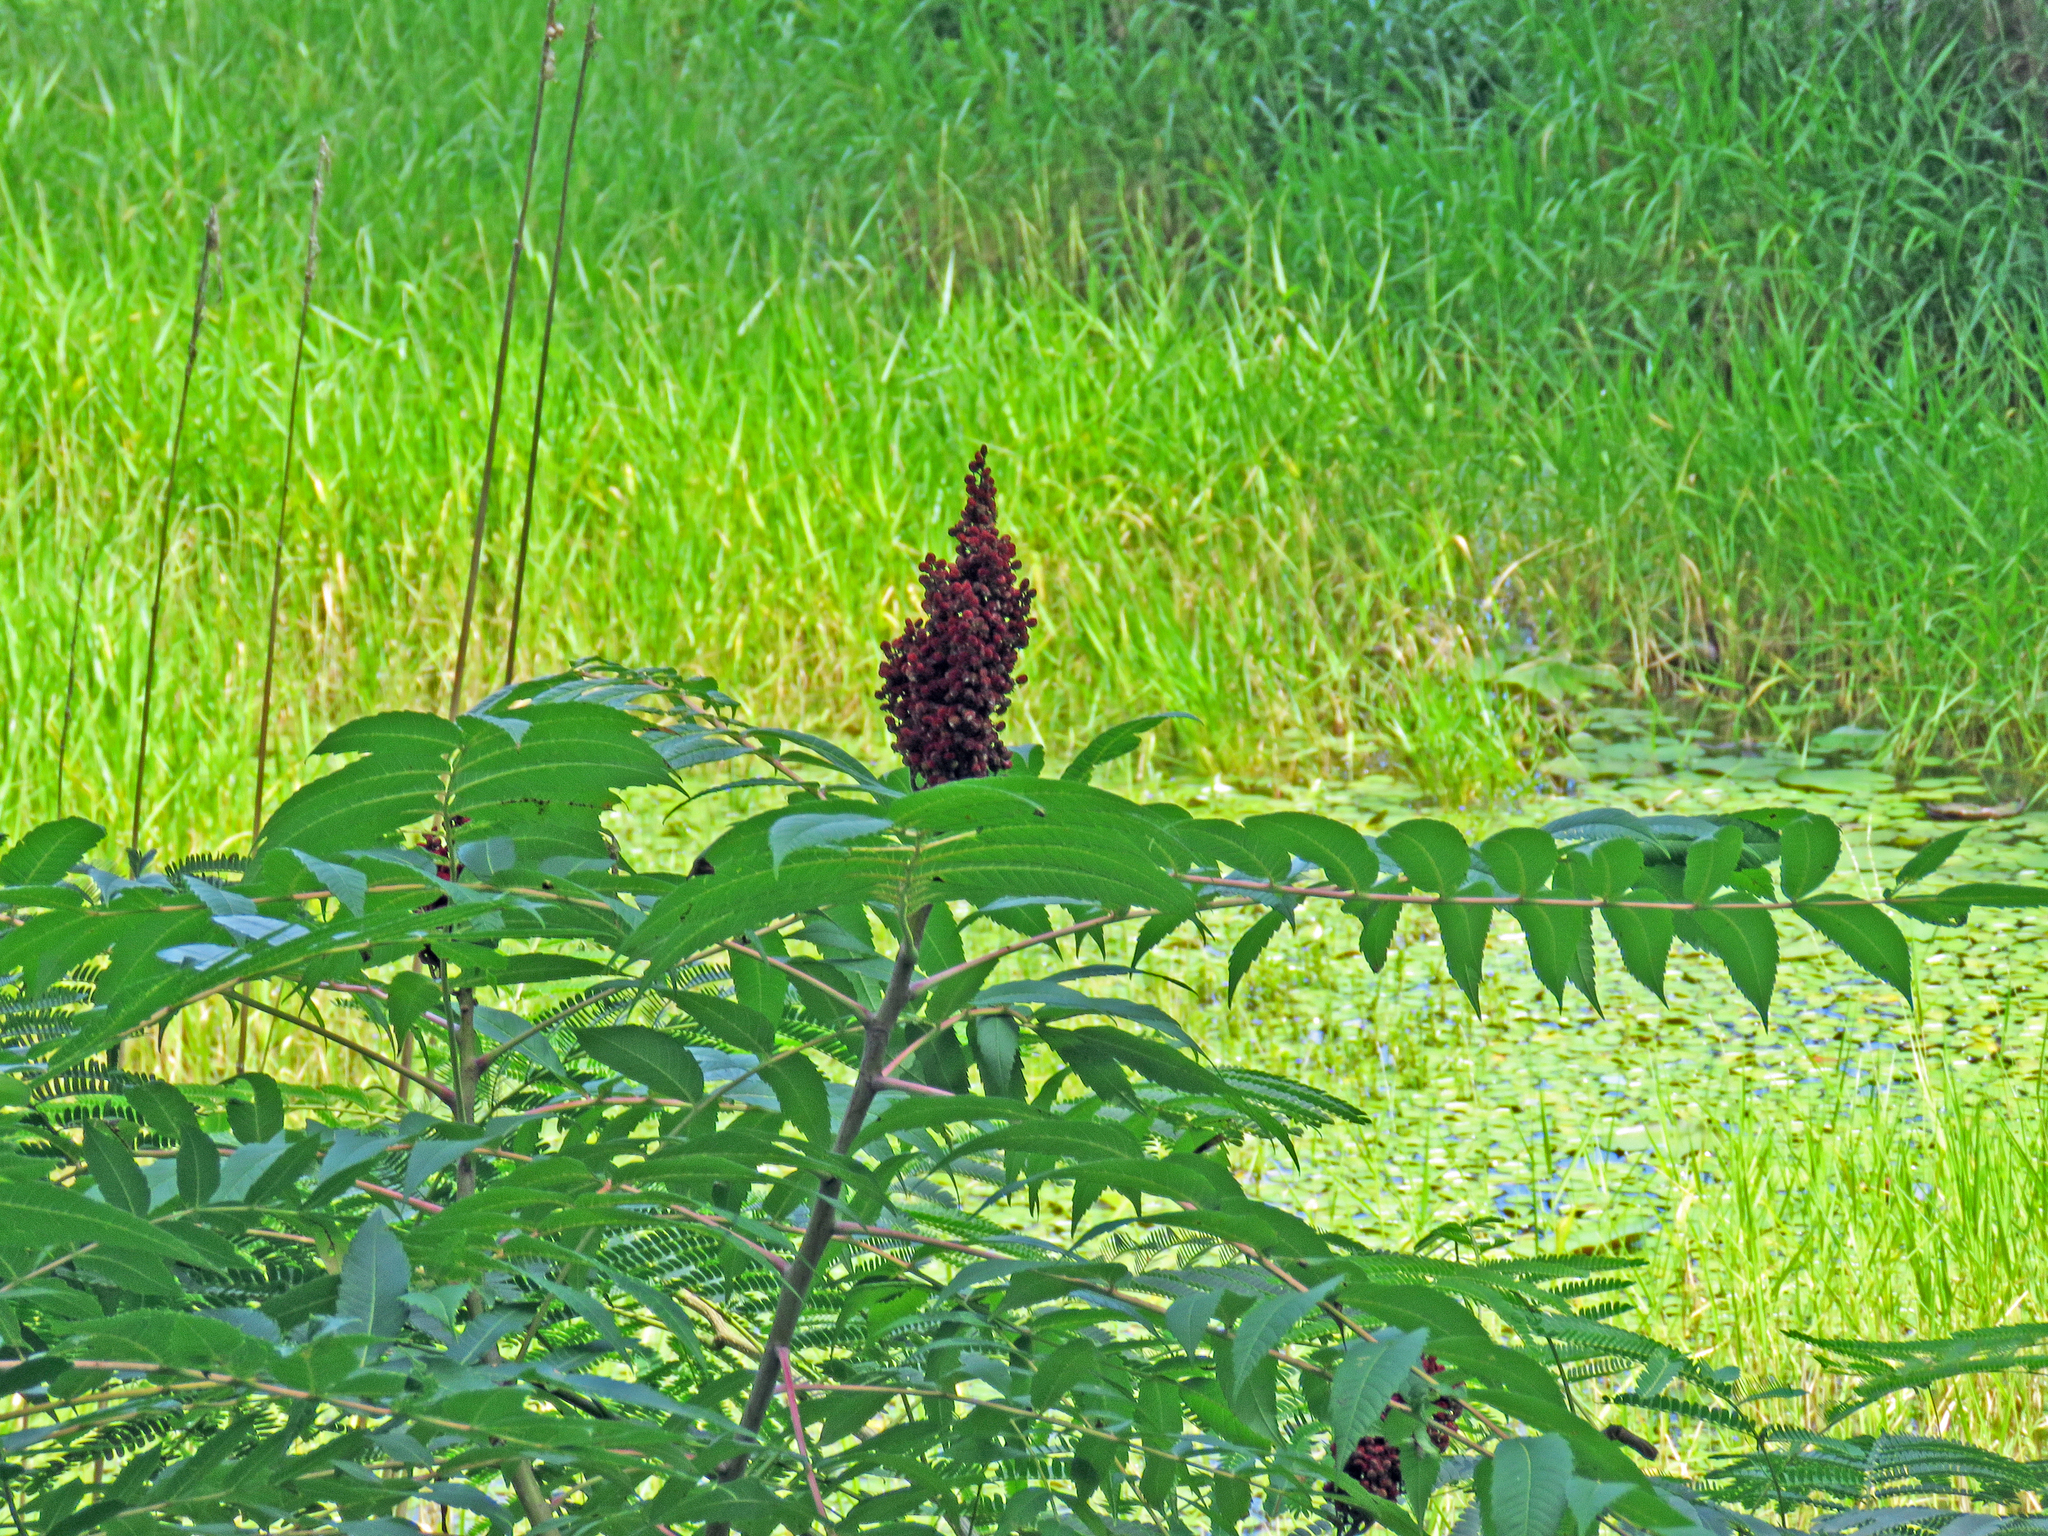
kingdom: Plantae
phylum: Tracheophyta
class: Magnoliopsida
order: Sapindales
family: Anacardiaceae
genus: Rhus
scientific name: Rhus glabra
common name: Scarlet sumac
